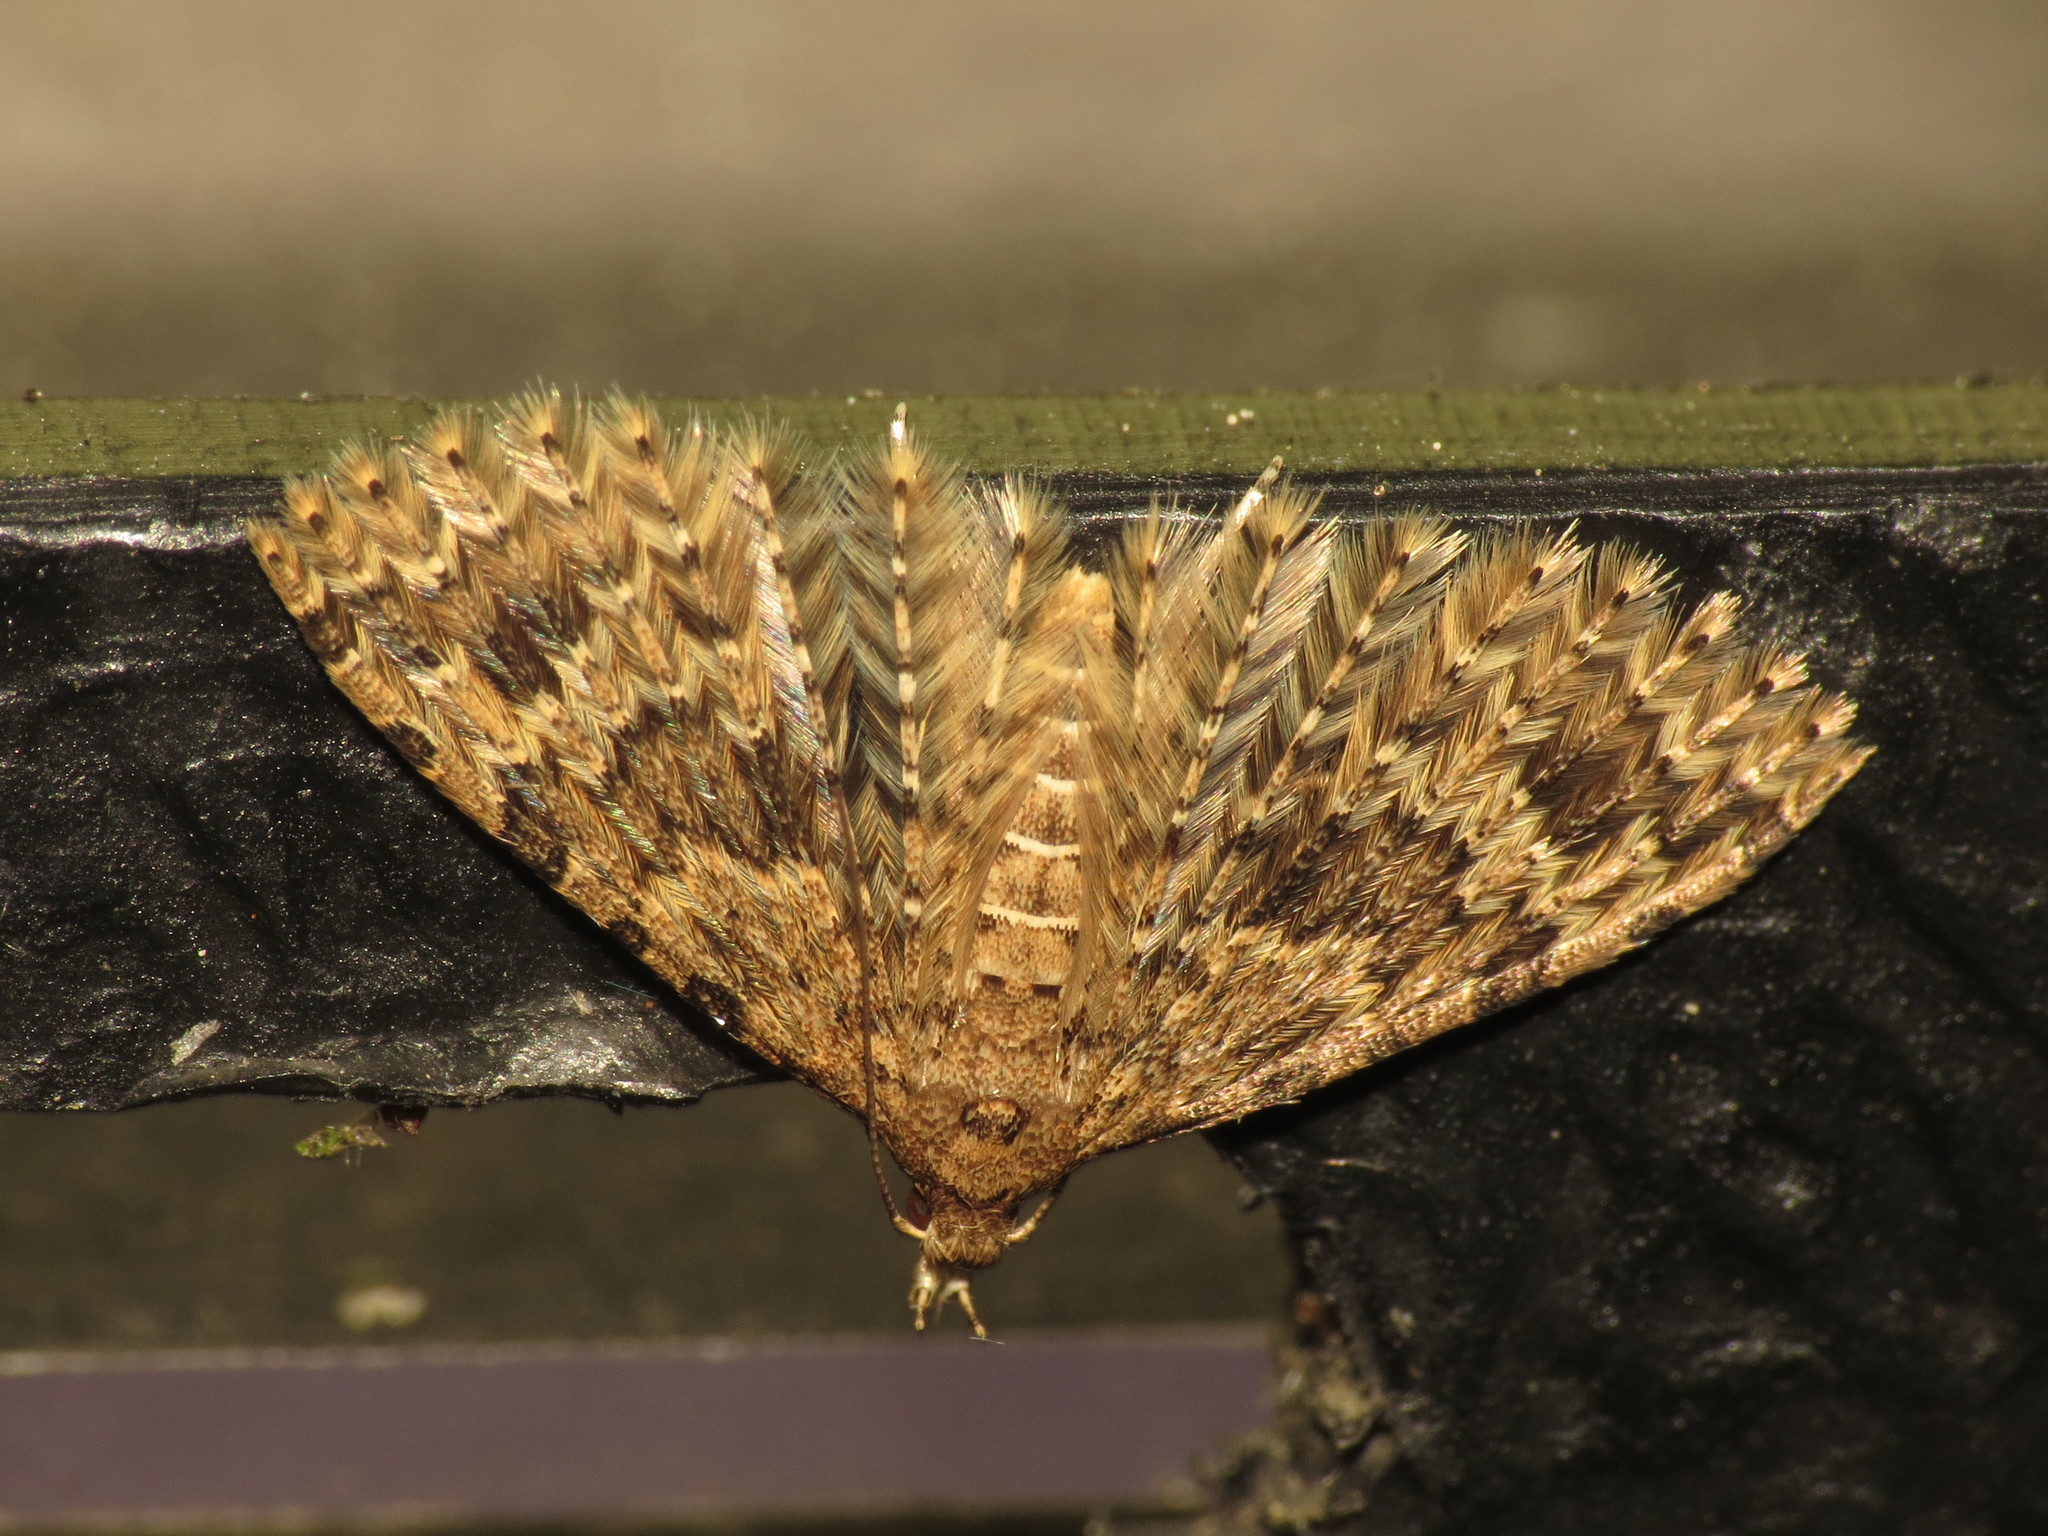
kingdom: Animalia
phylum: Arthropoda
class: Insecta
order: Lepidoptera
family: Alucitidae
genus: Alucita
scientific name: Alucita hexadactyla
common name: Twenty-plume moth
